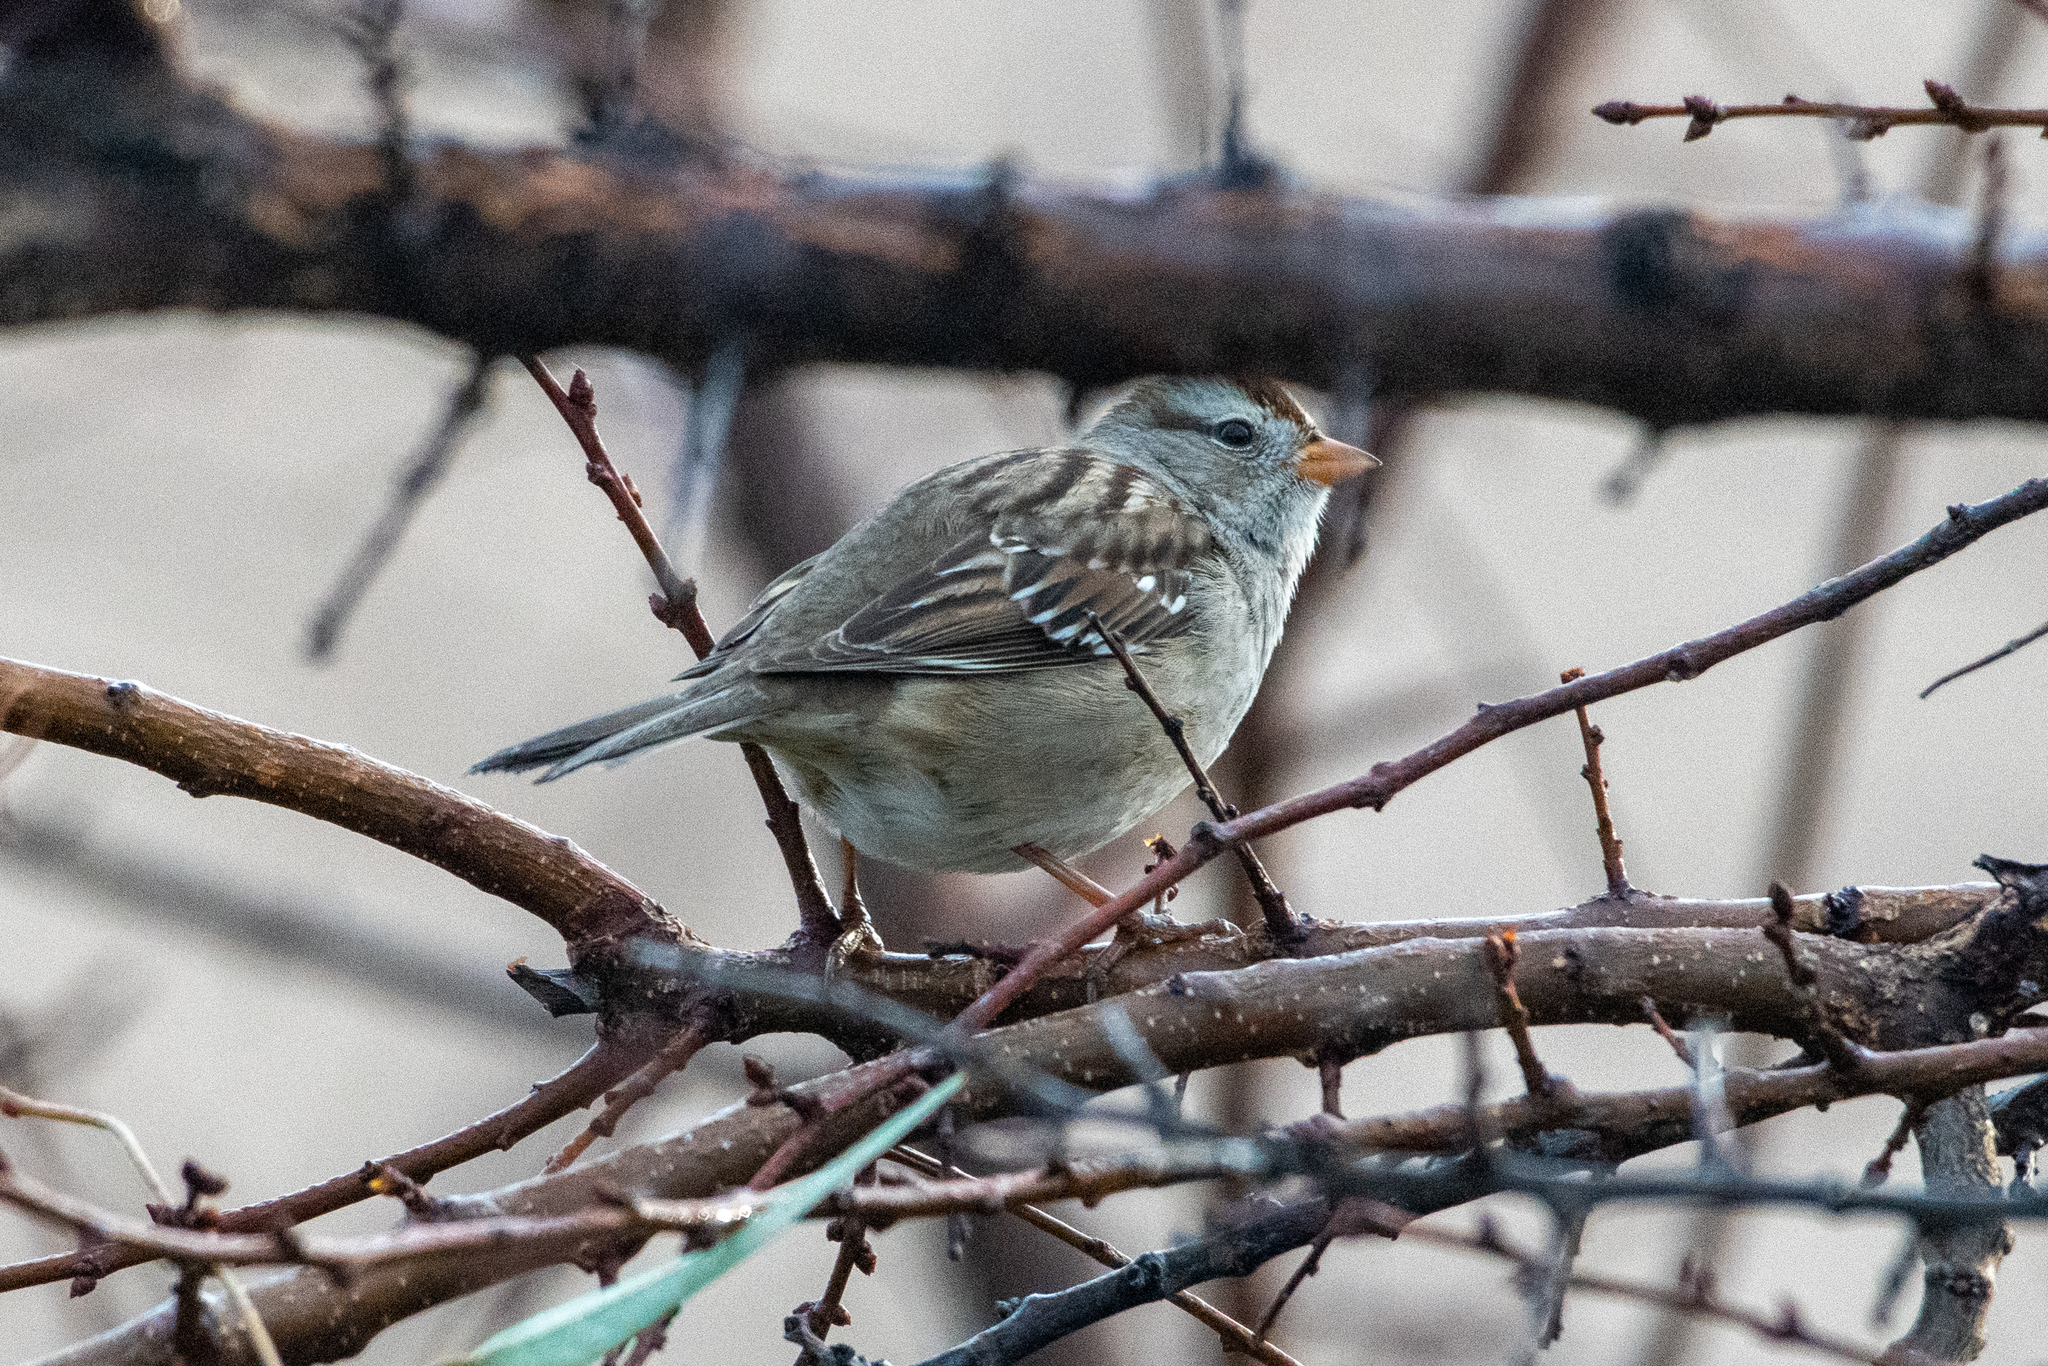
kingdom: Animalia
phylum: Chordata
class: Aves
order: Passeriformes
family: Passerellidae
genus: Zonotrichia
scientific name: Zonotrichia leucophrys
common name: White-crowned sparrow
